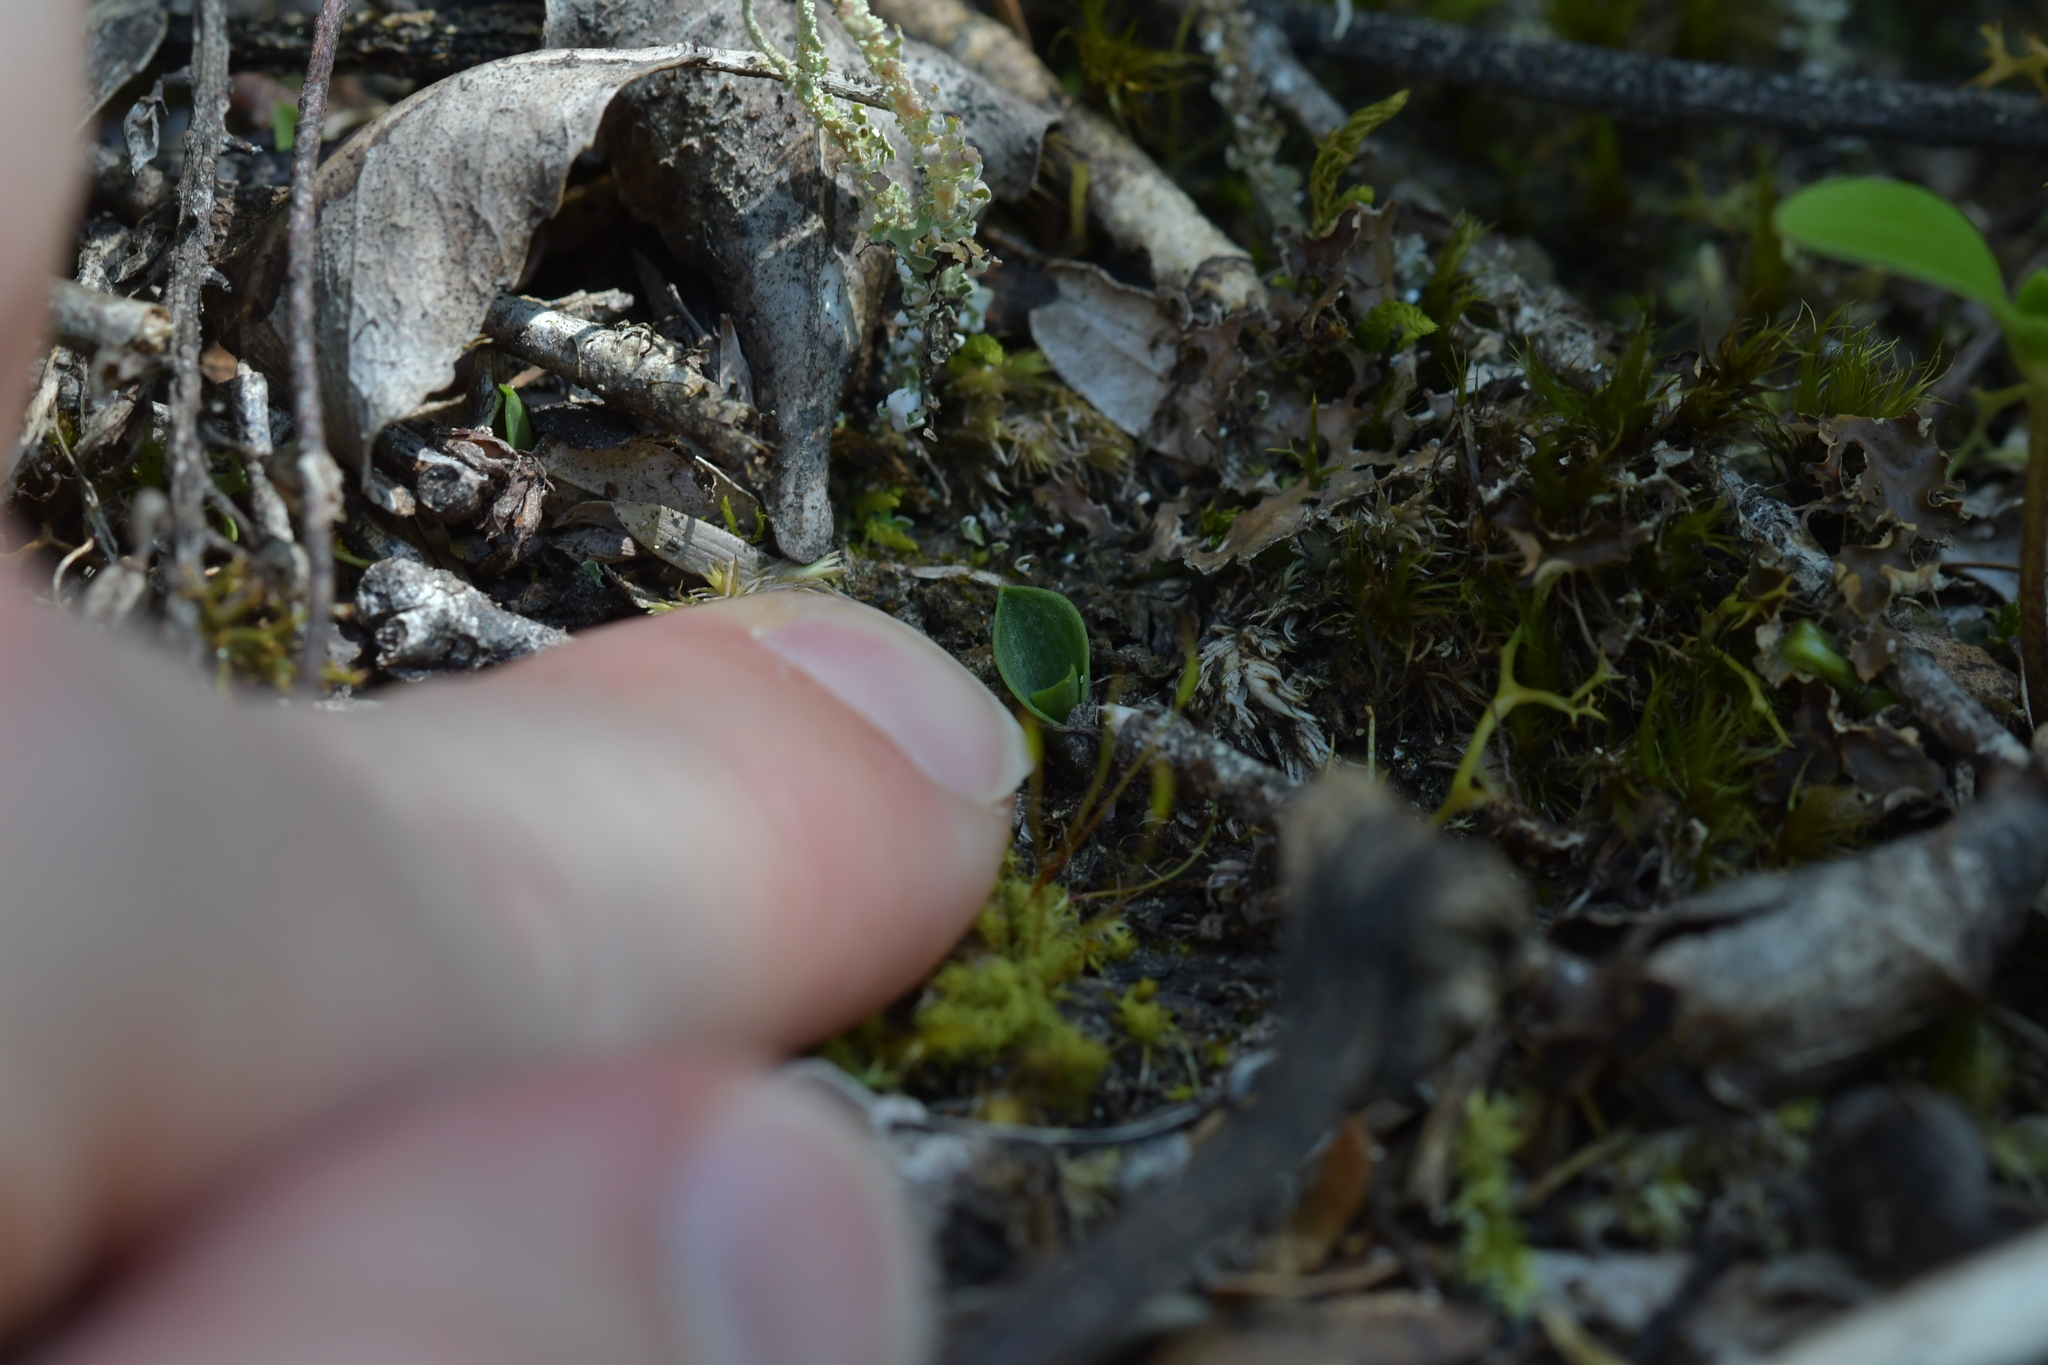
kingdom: Plantae
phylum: Tracheophyta
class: Liliopsida
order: Asparagales
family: Orchidaceae
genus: Chiloglottis
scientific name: Chiloglottis cornuta
